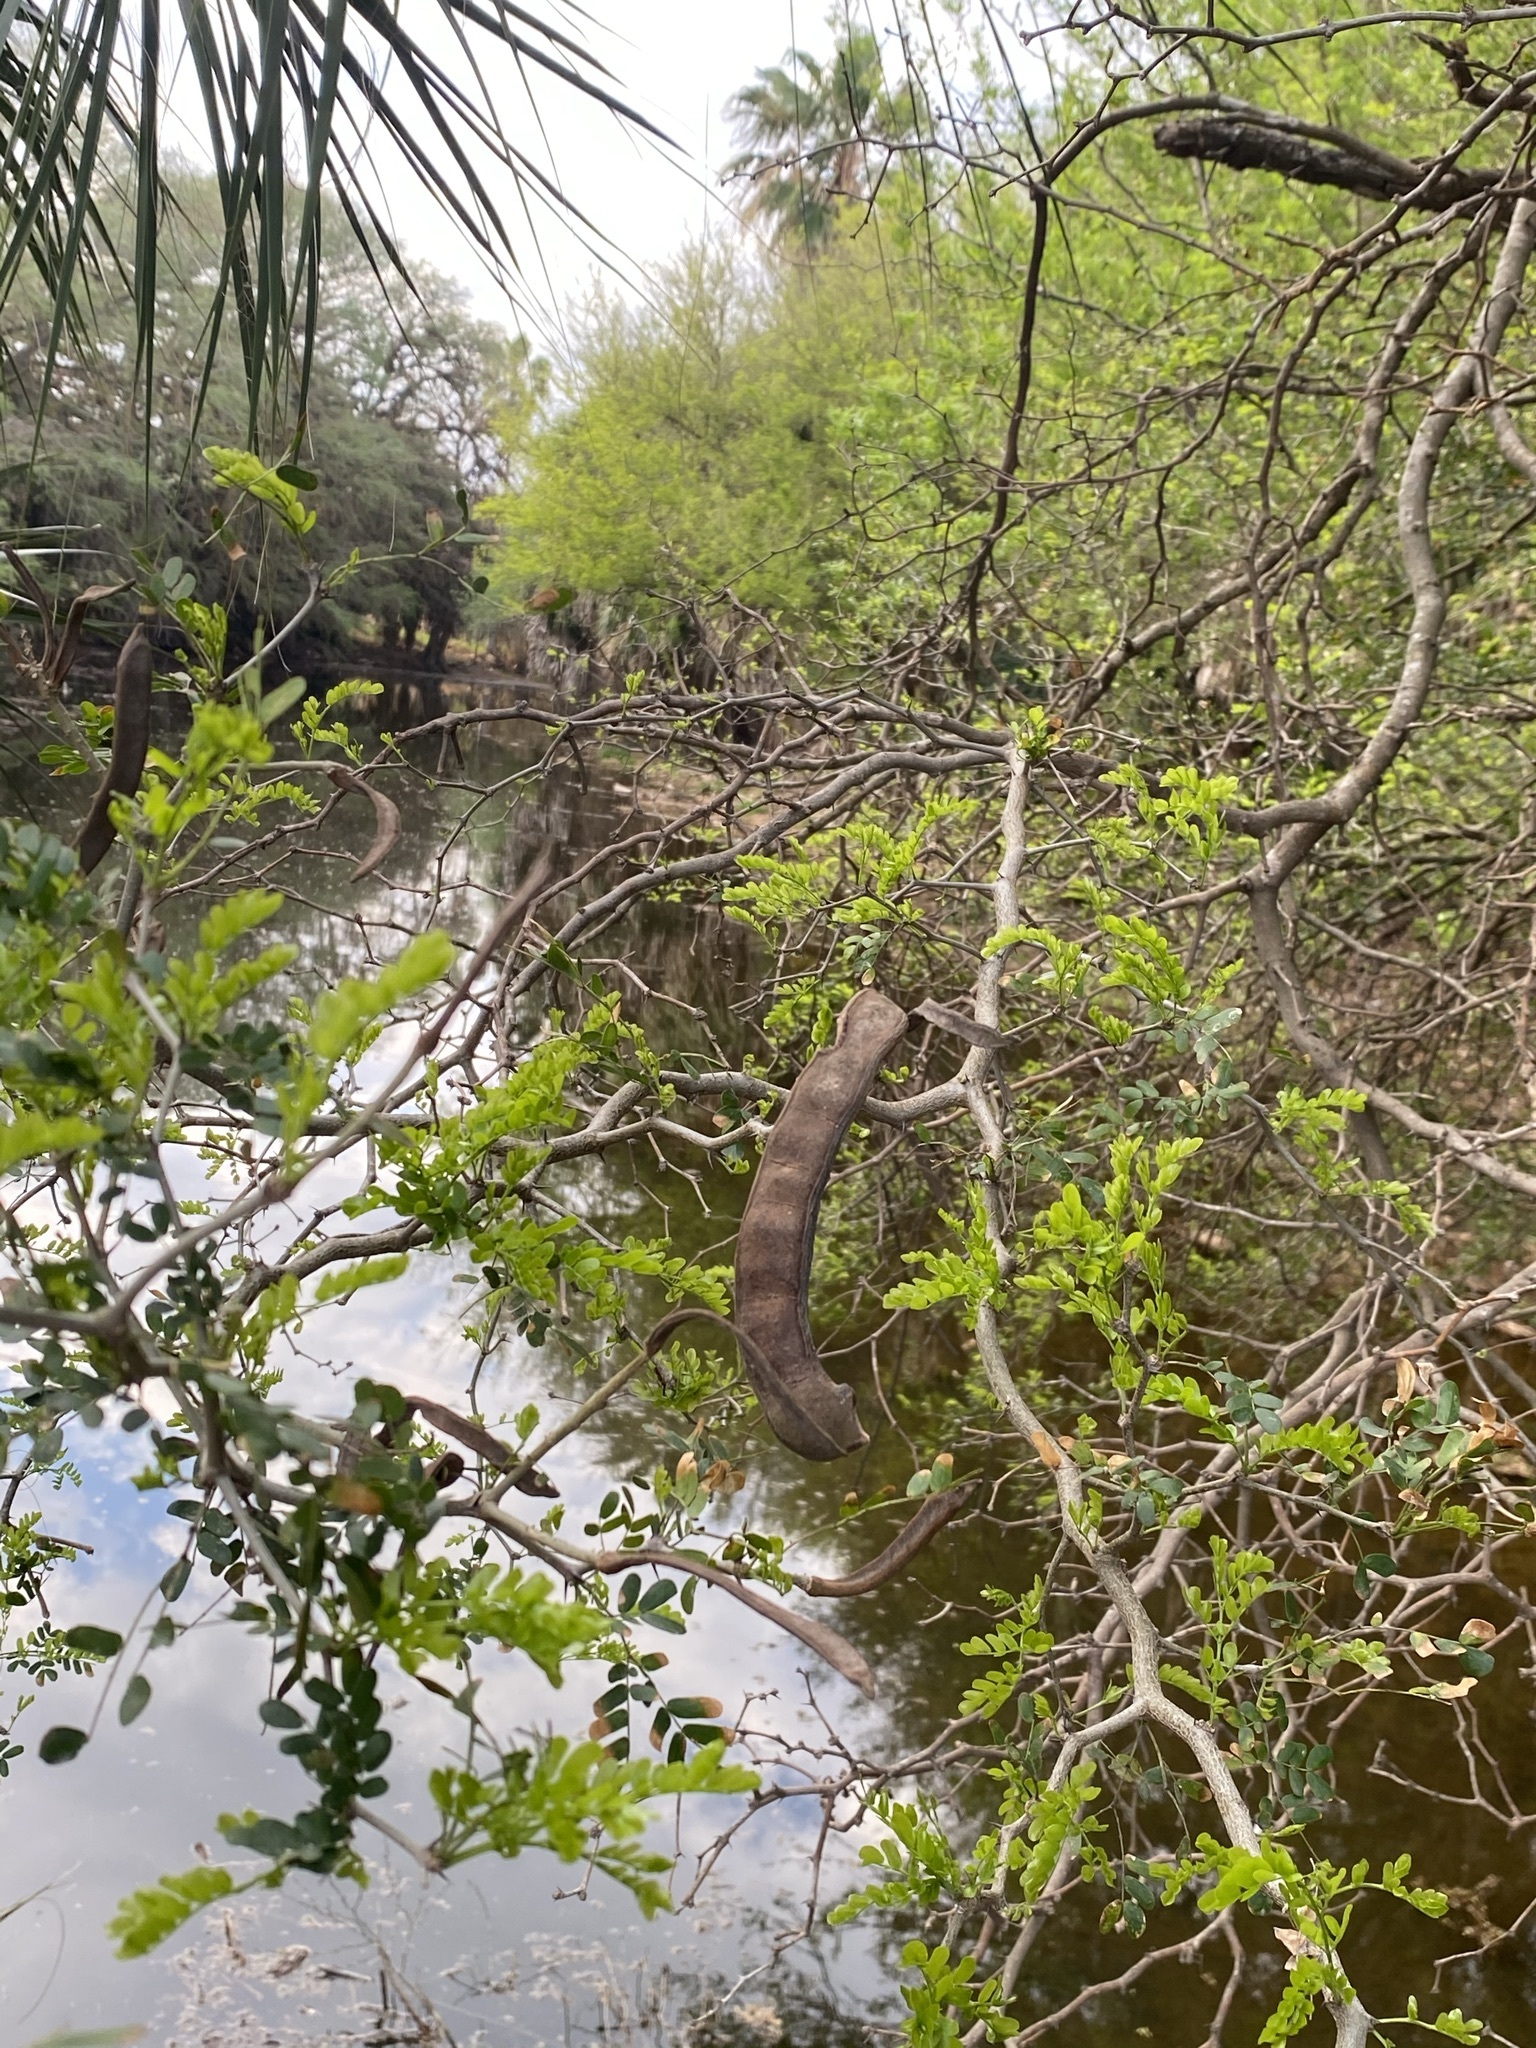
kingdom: Plantae
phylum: Tracheophyta
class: Magnoliopsida
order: Fabales
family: Fabaceae
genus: Ebenopsis
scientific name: Ebenopsis ebano
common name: Ebony blackbead
